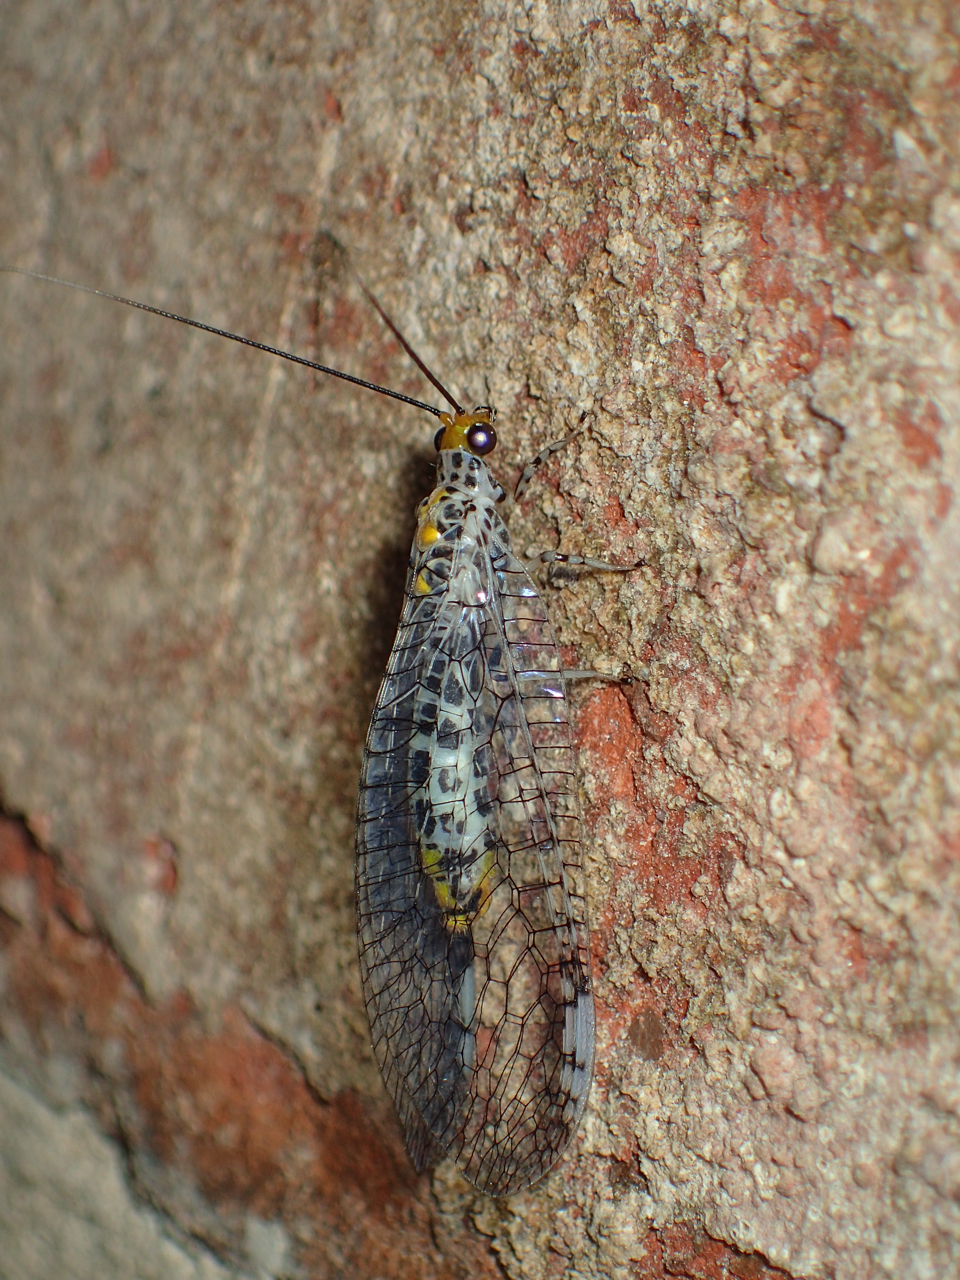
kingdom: Animalia
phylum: Arthropoda
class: Insecta
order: Neuroptera
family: Chrysopidae
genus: Abachrysa
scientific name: Abachrysa eureka
